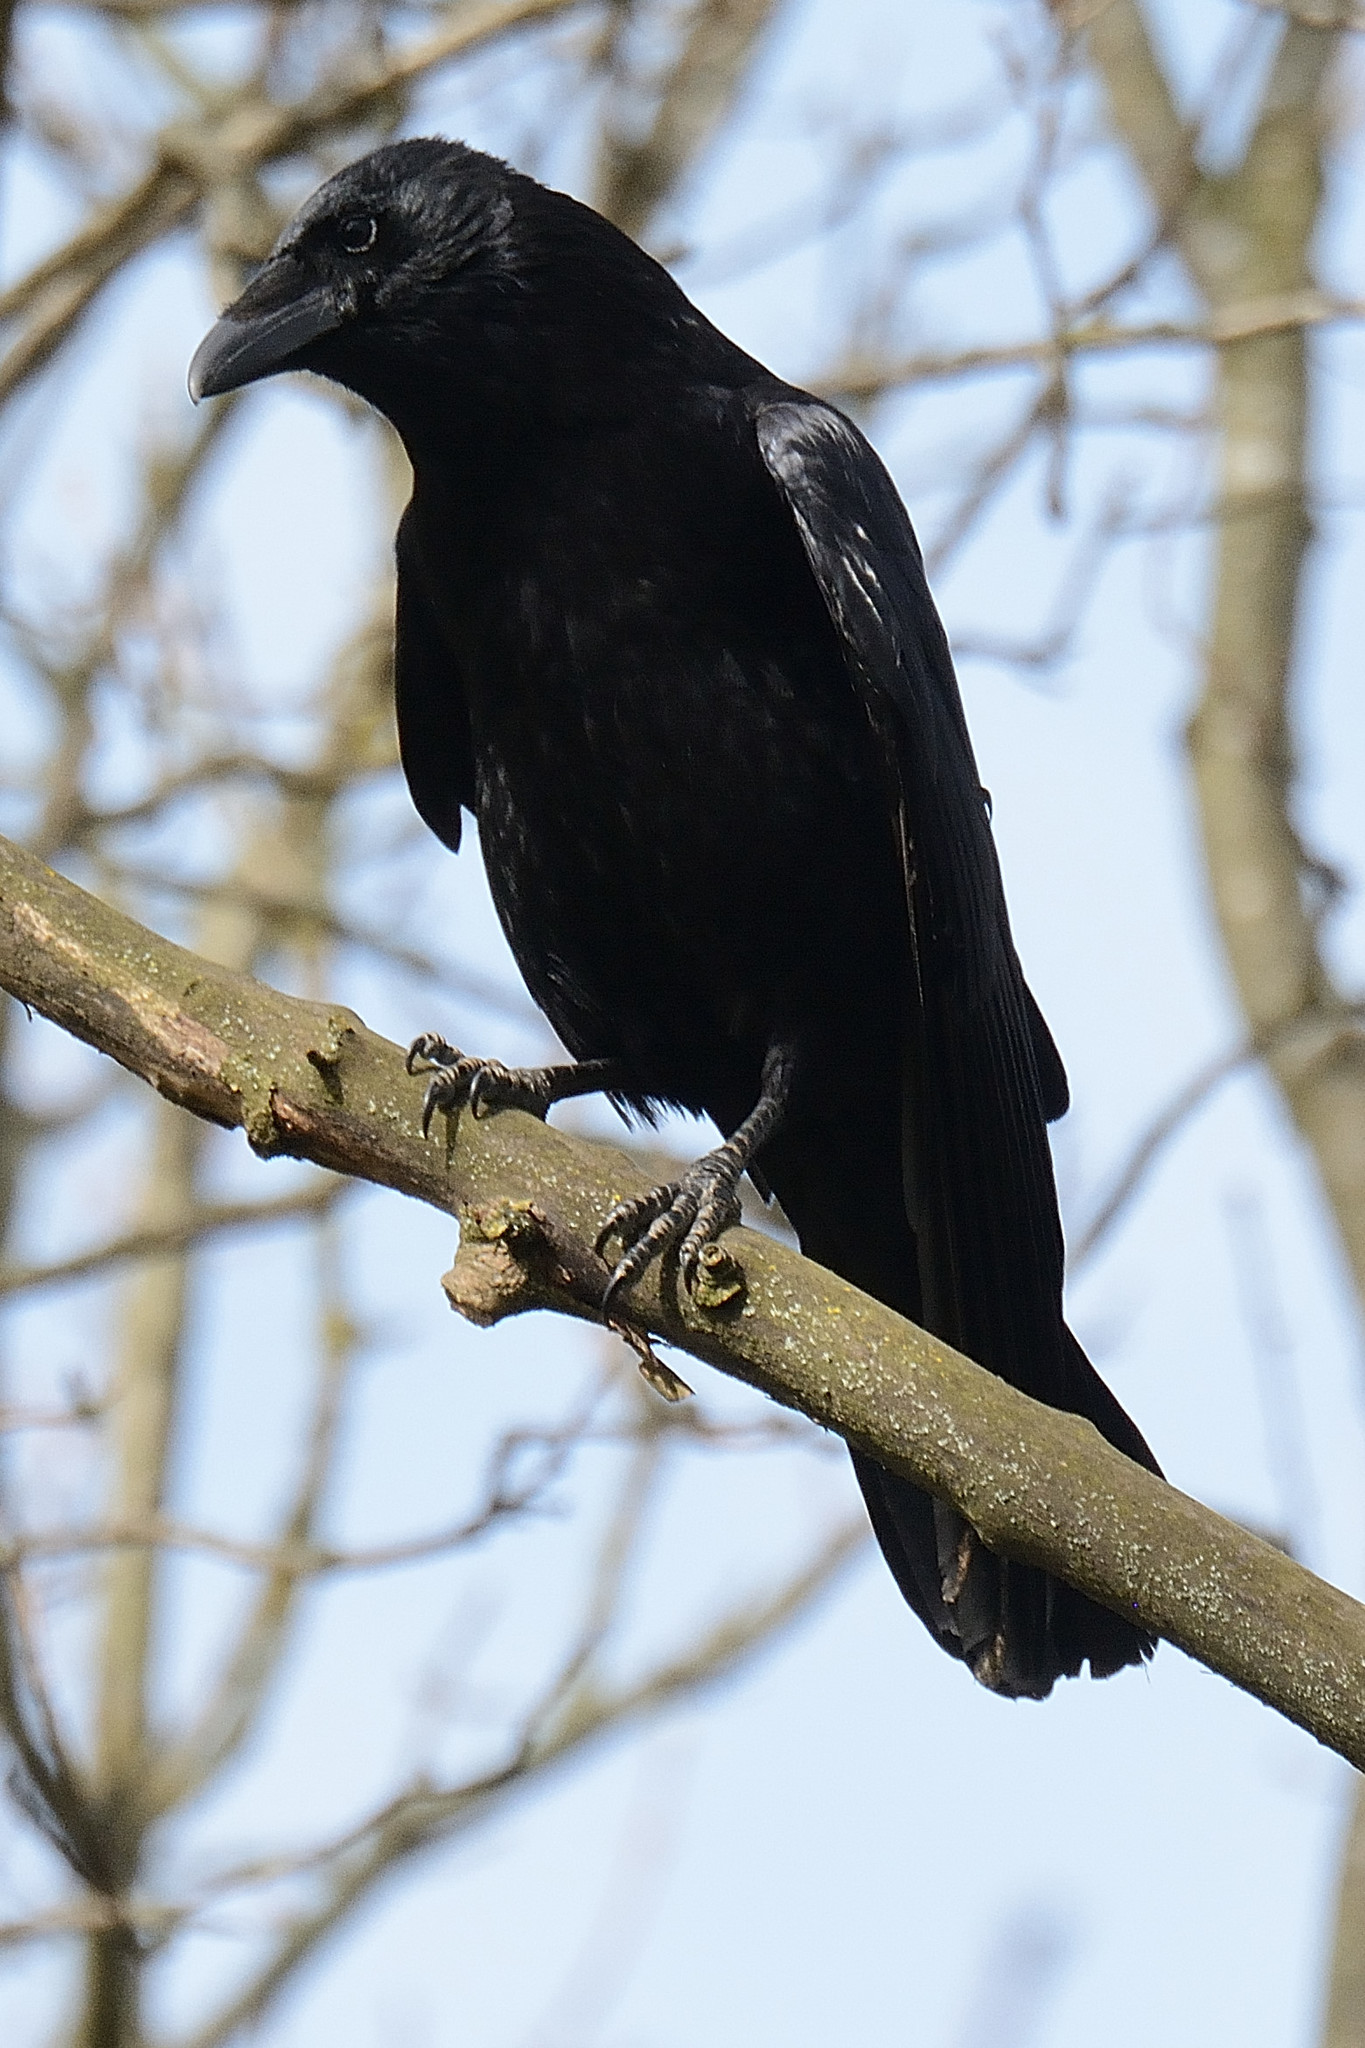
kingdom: Animalia
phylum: Chordata
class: Aves
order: Passeriformes
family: Corvidae
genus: Corvus
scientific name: Corvus corone
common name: Carrion crow
